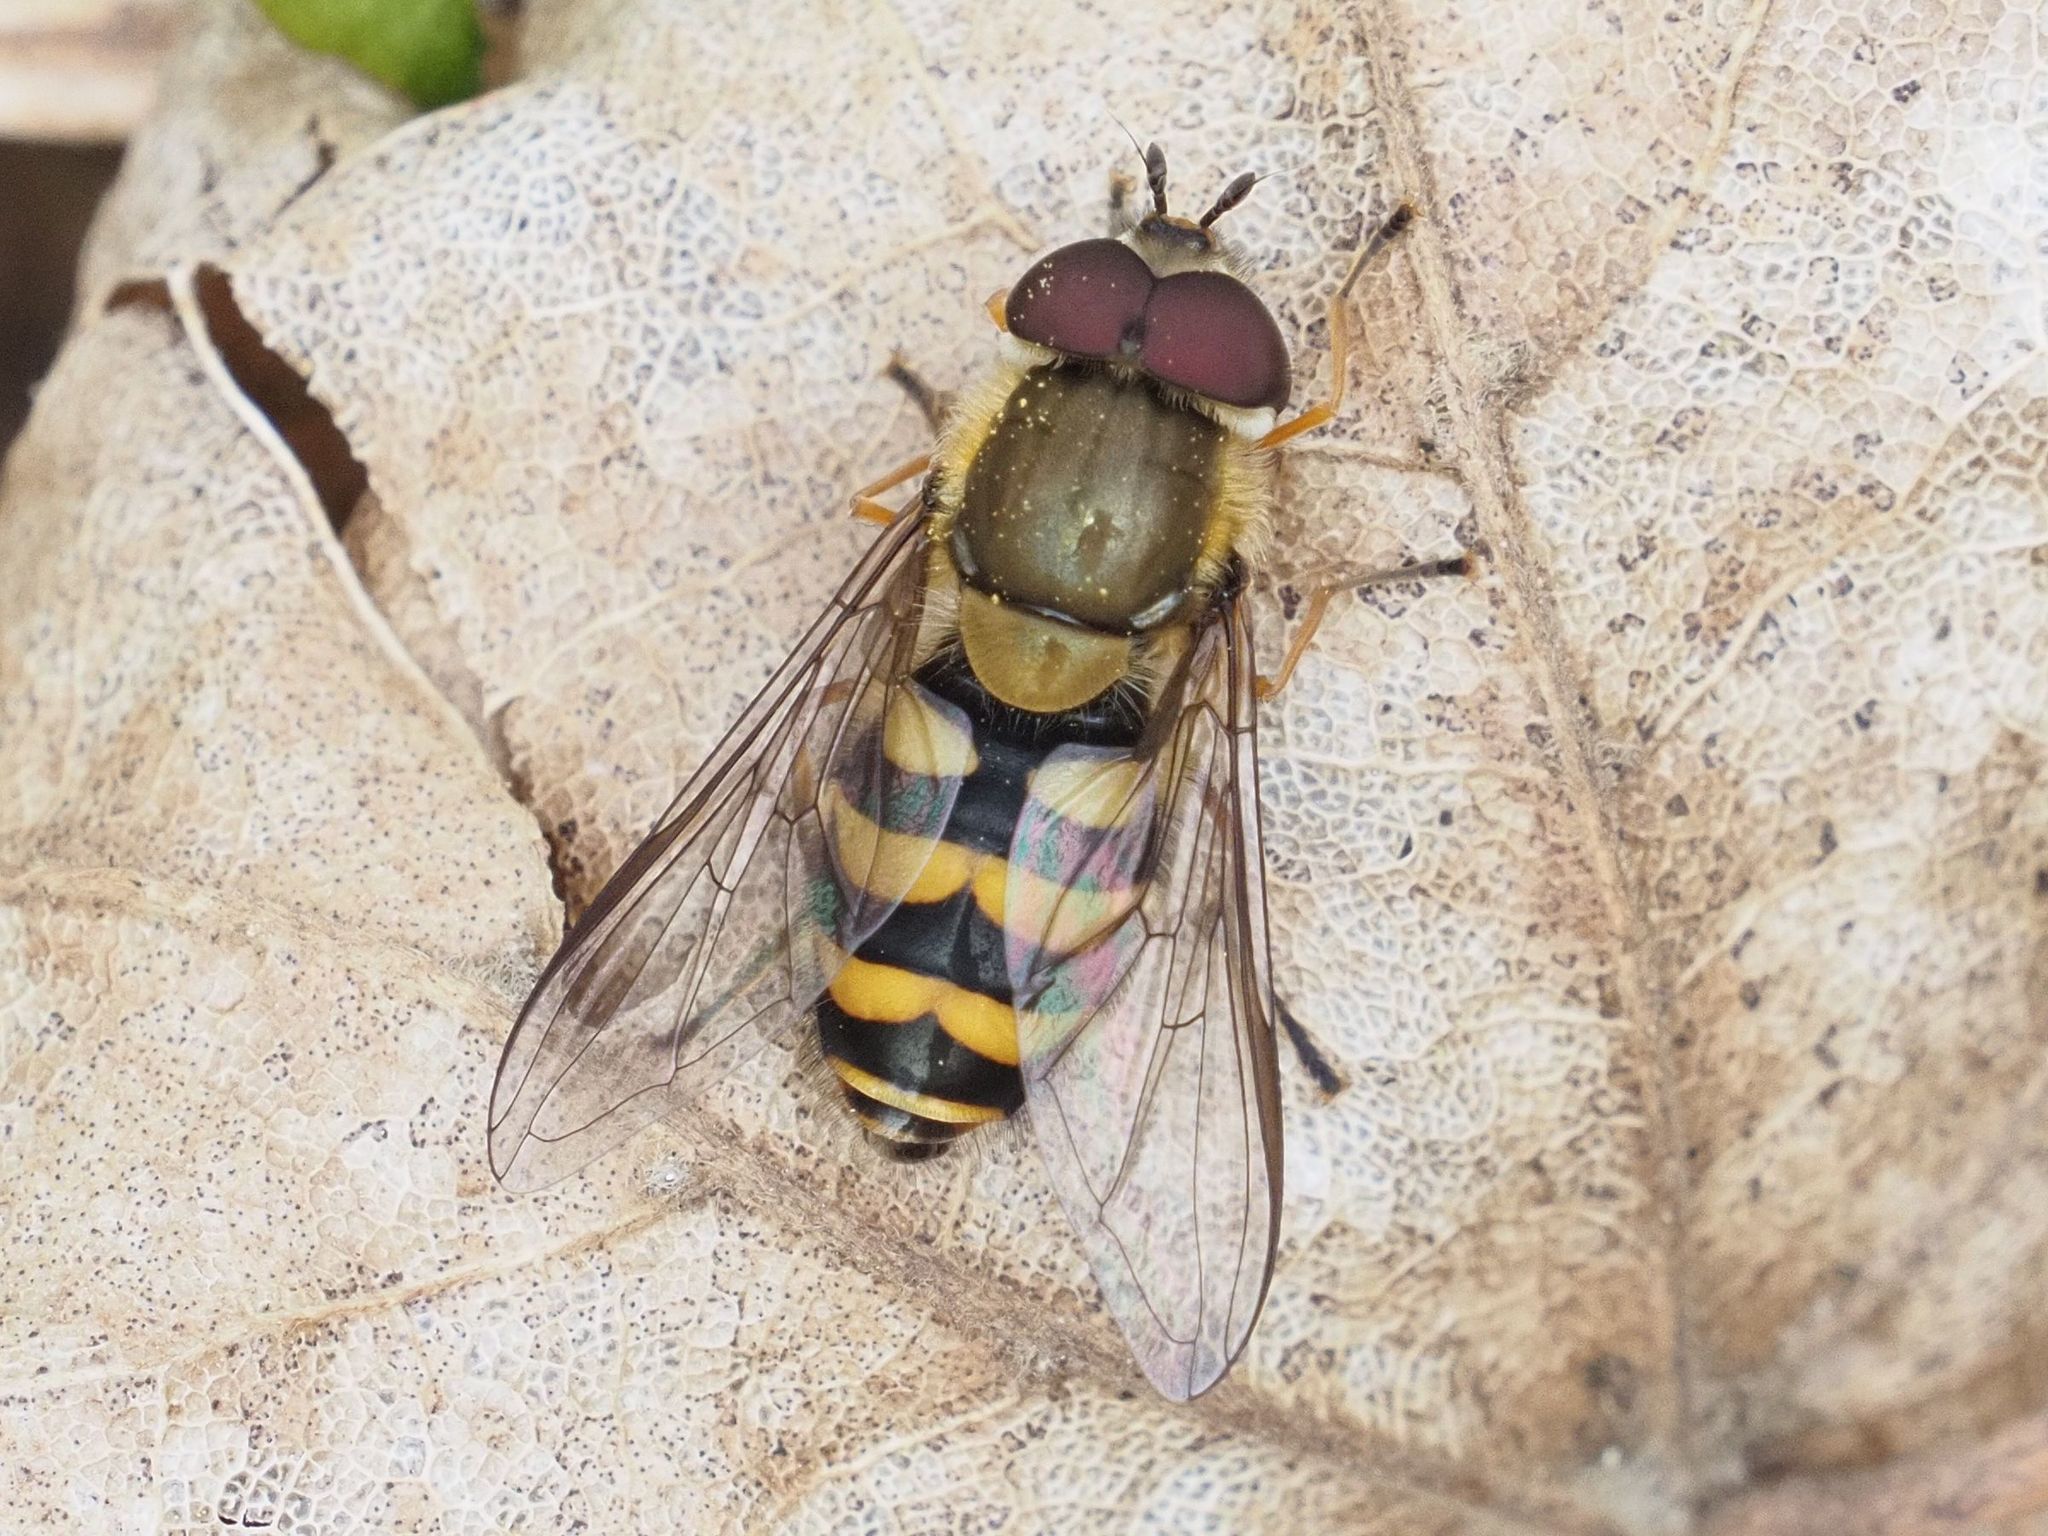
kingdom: Animalia
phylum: Arthropoda
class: Insecta
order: Diptera
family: Syrphidae
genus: Syrphus
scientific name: Syrphus torvus
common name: Hairy-eyed flower fly
